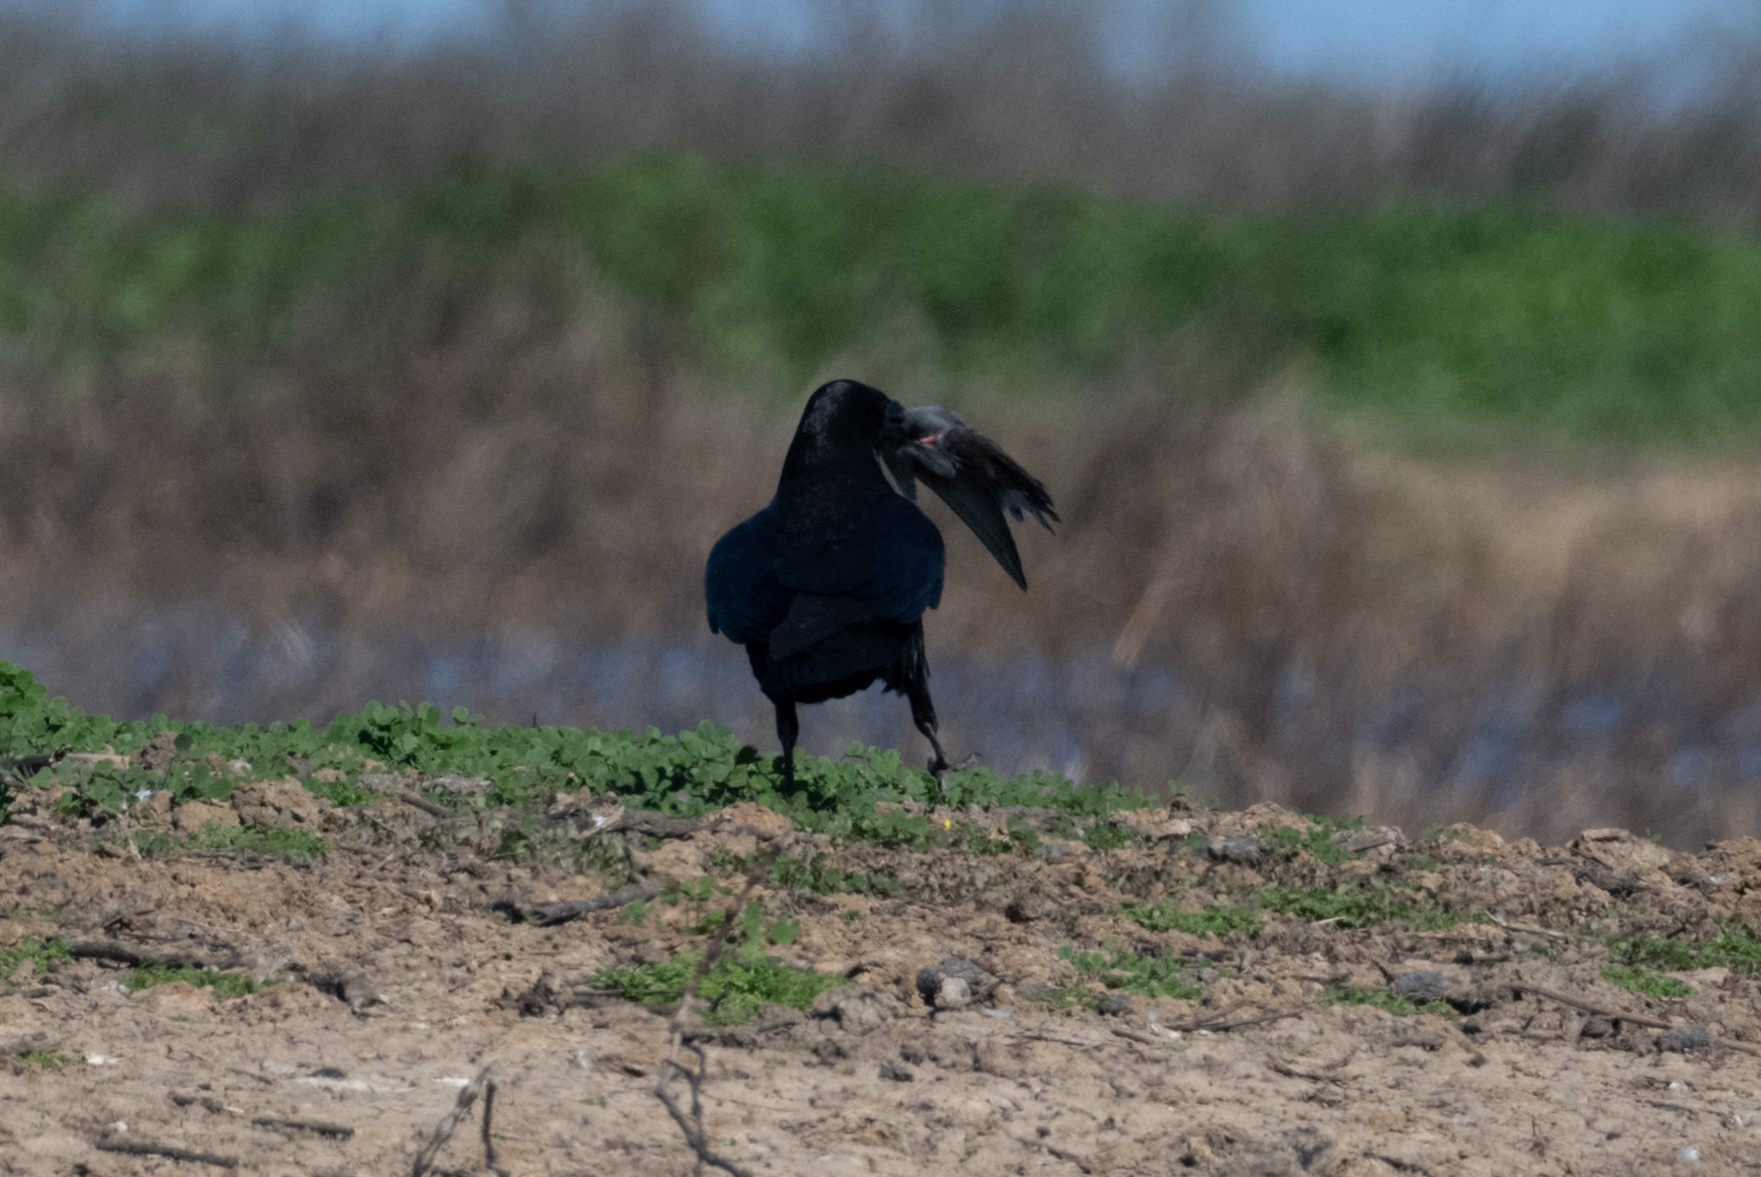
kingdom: Animalia
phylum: Chordata
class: Aves
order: Passeriformes
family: Corvidae
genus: Corvus
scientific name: Corvus corax
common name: Common raven
